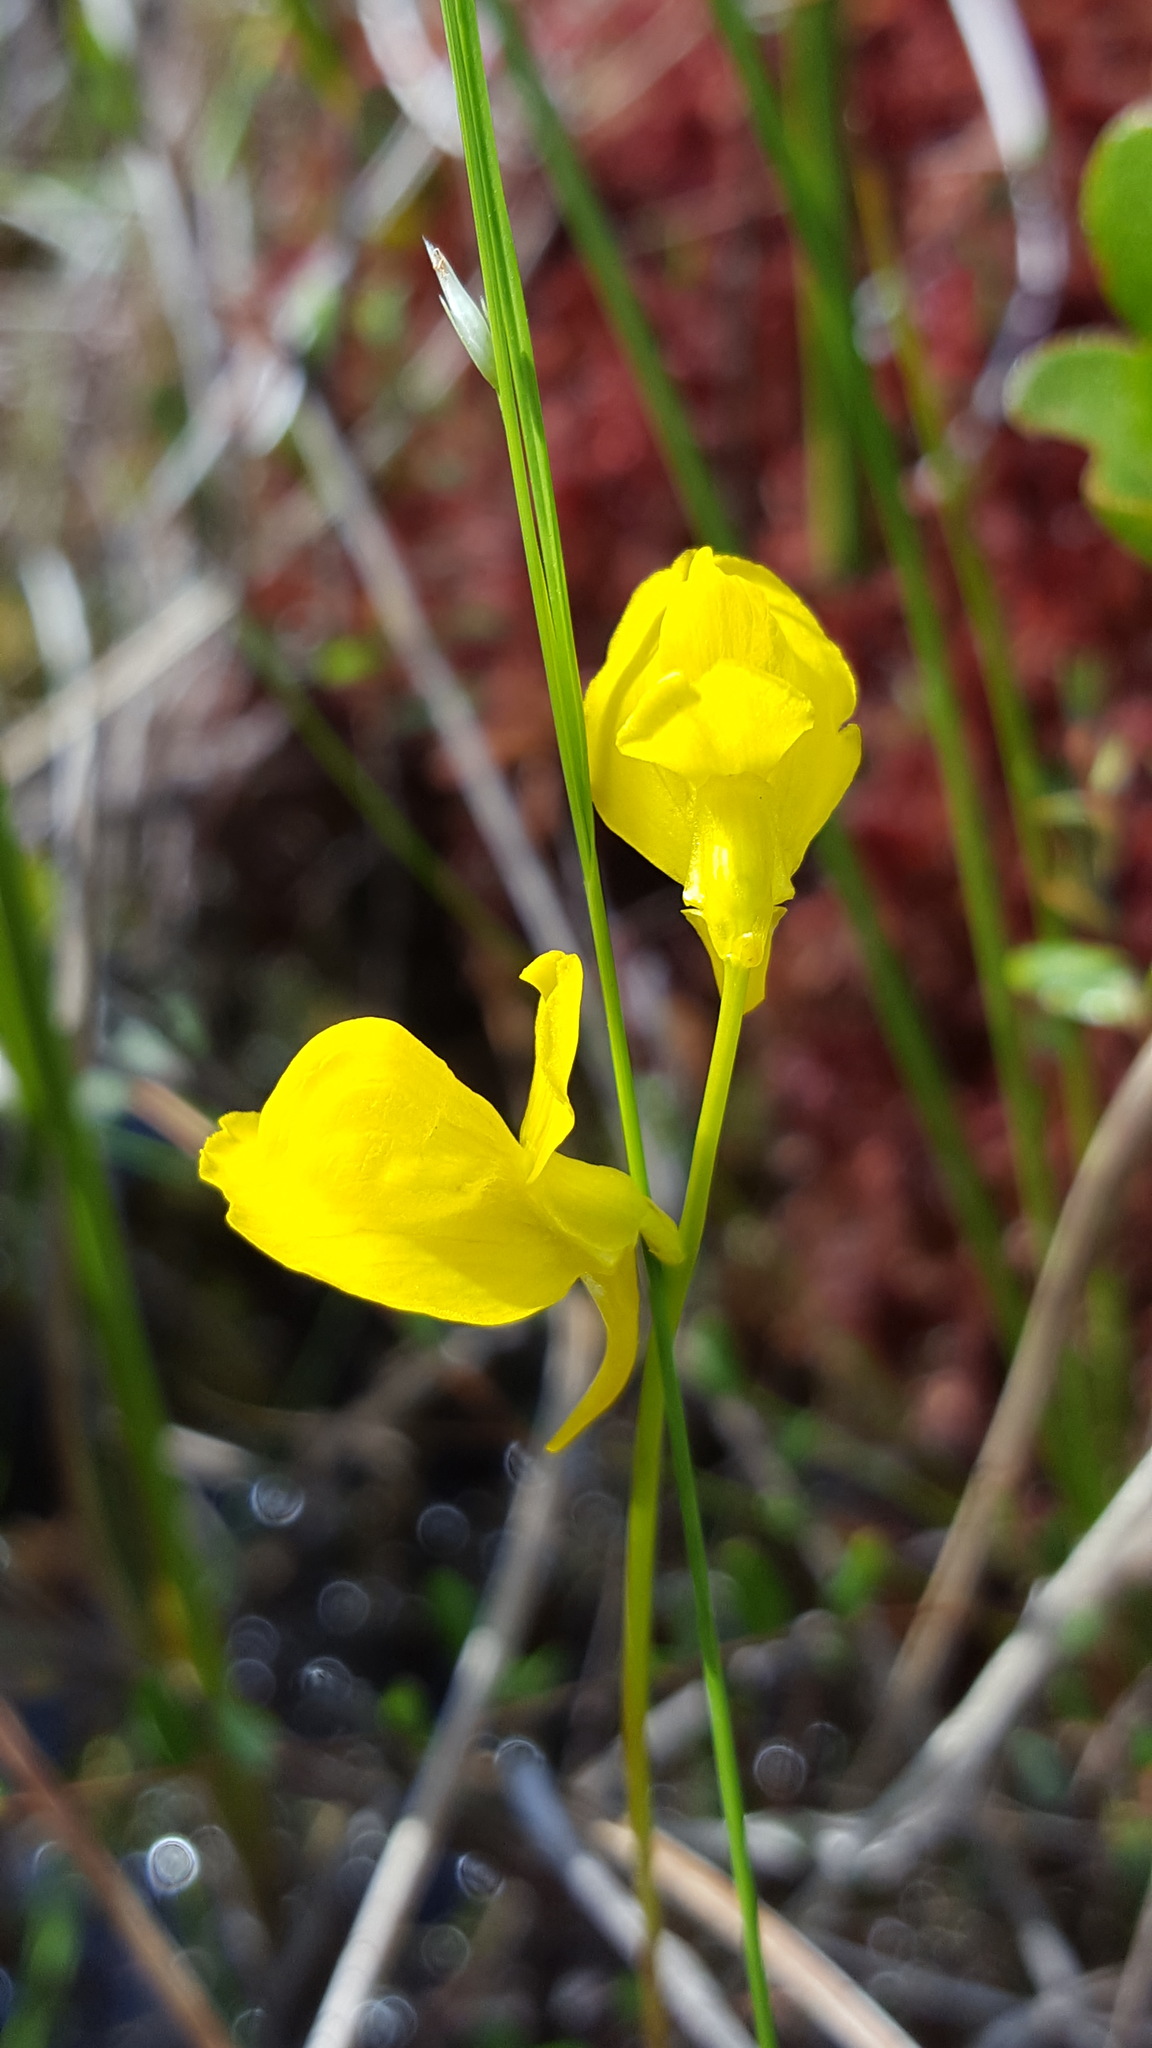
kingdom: Plantae
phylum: Tracheophyta
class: Magnoliopsida
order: Lamiales
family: Lentibulariaceae
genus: Utricularia
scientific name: Utricularia cornuta
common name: Horned bladderwort
